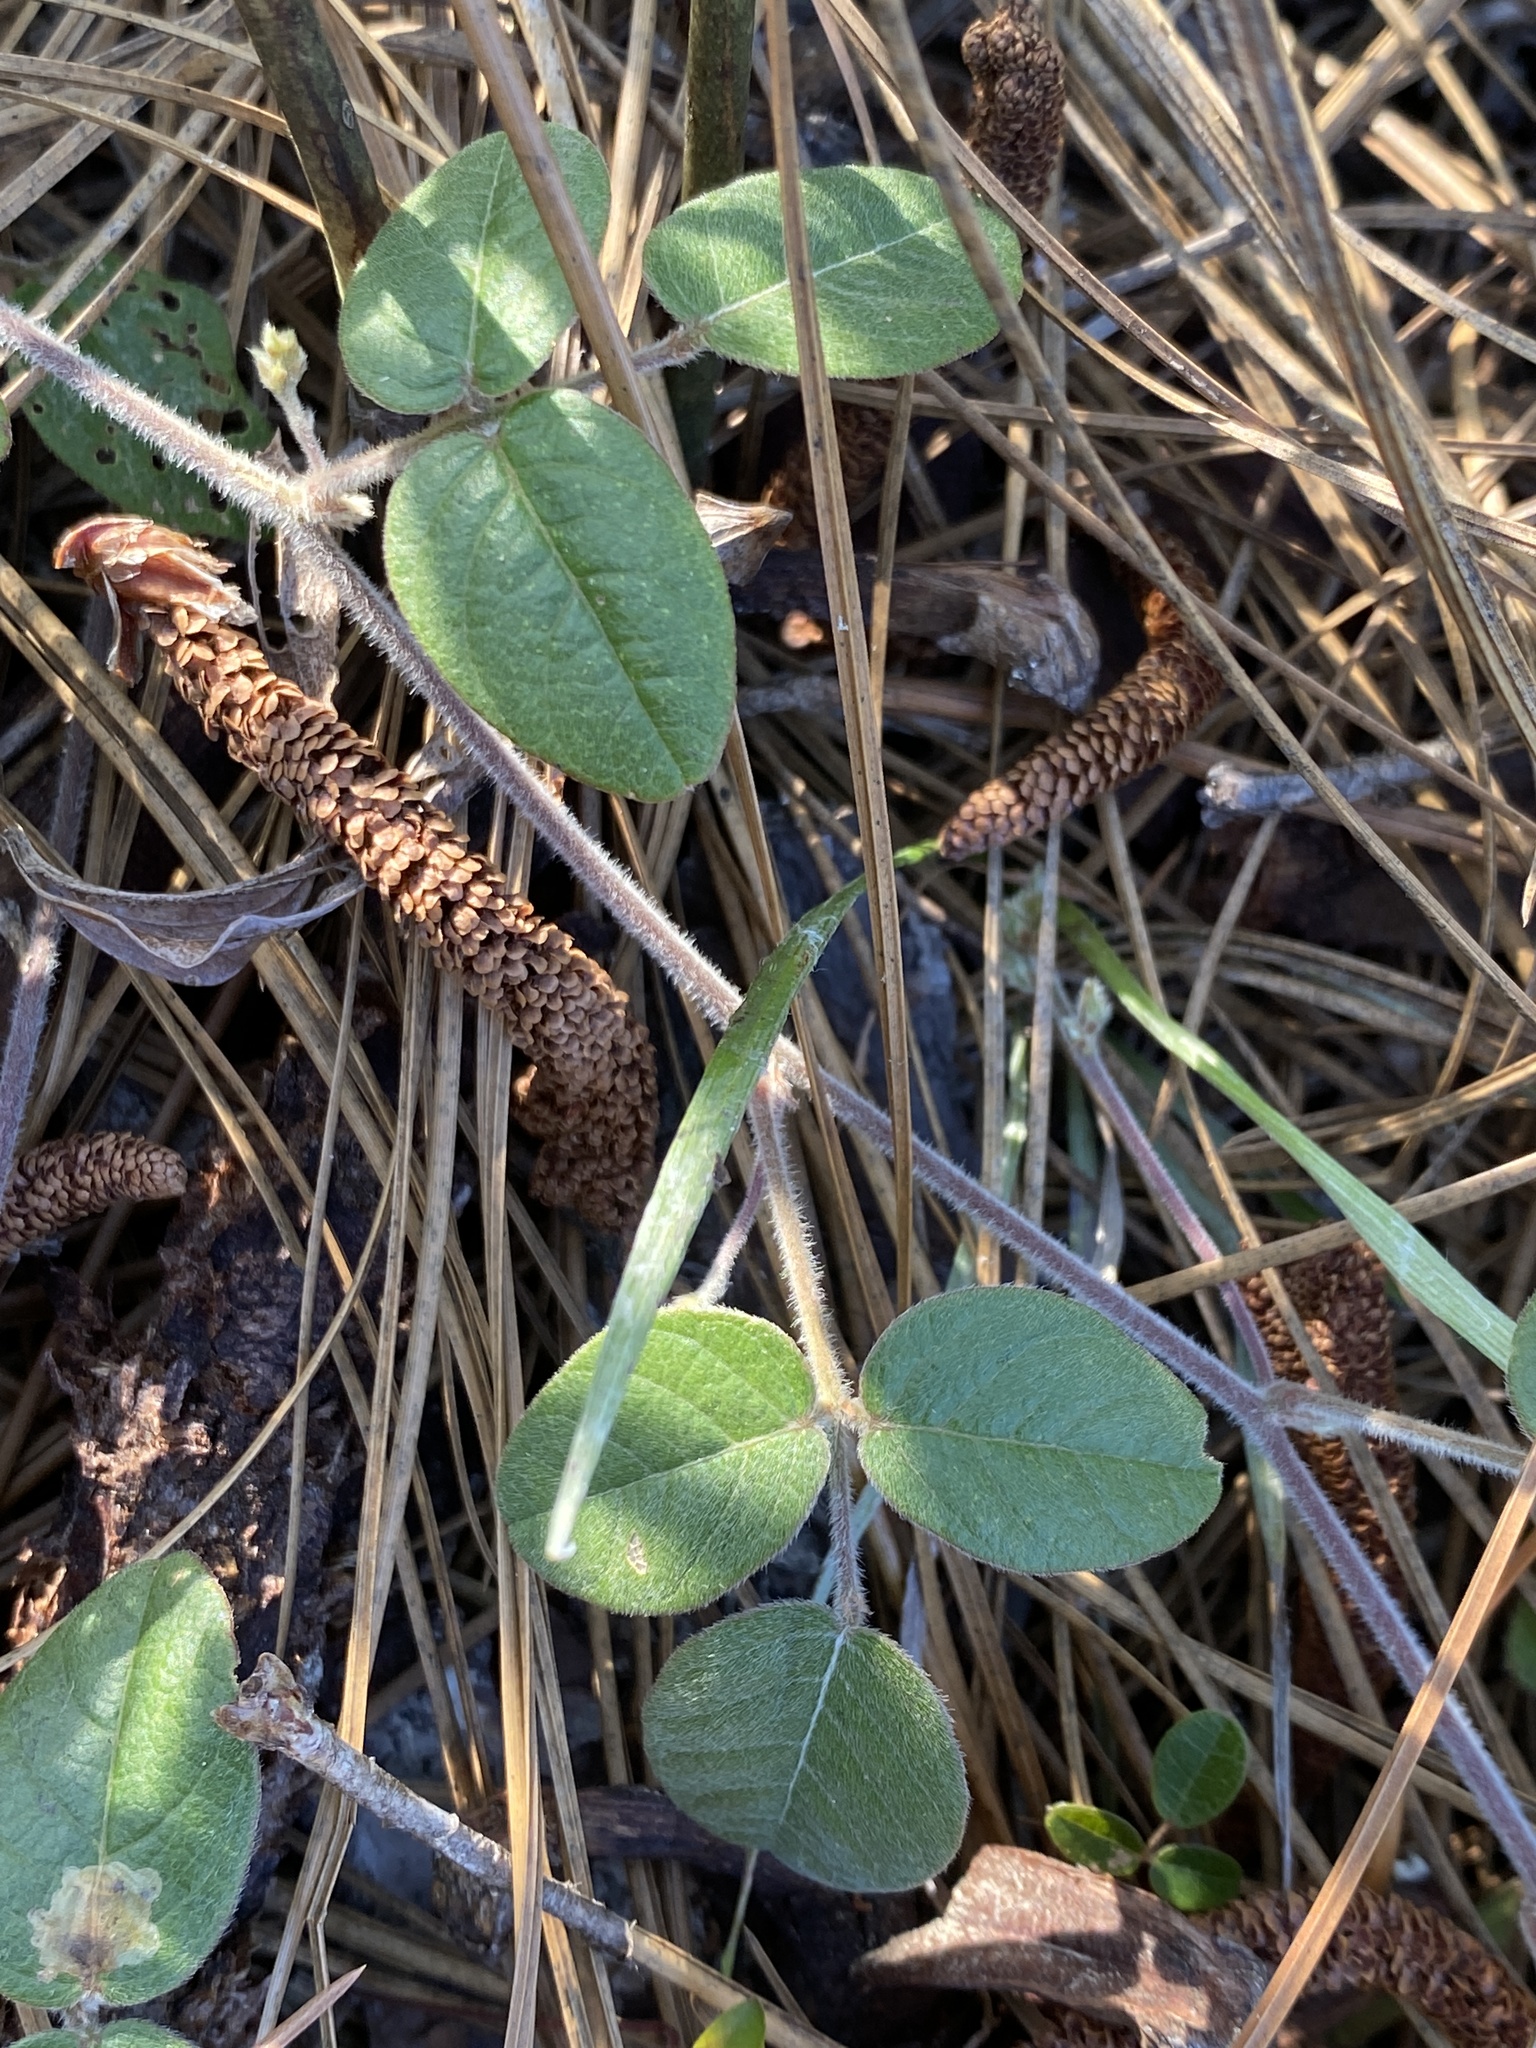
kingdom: Plantae
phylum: Tracheophyta
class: Magnoliopsida
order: Fabales
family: Fabaceae
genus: Galactia
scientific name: Galactia mollis
